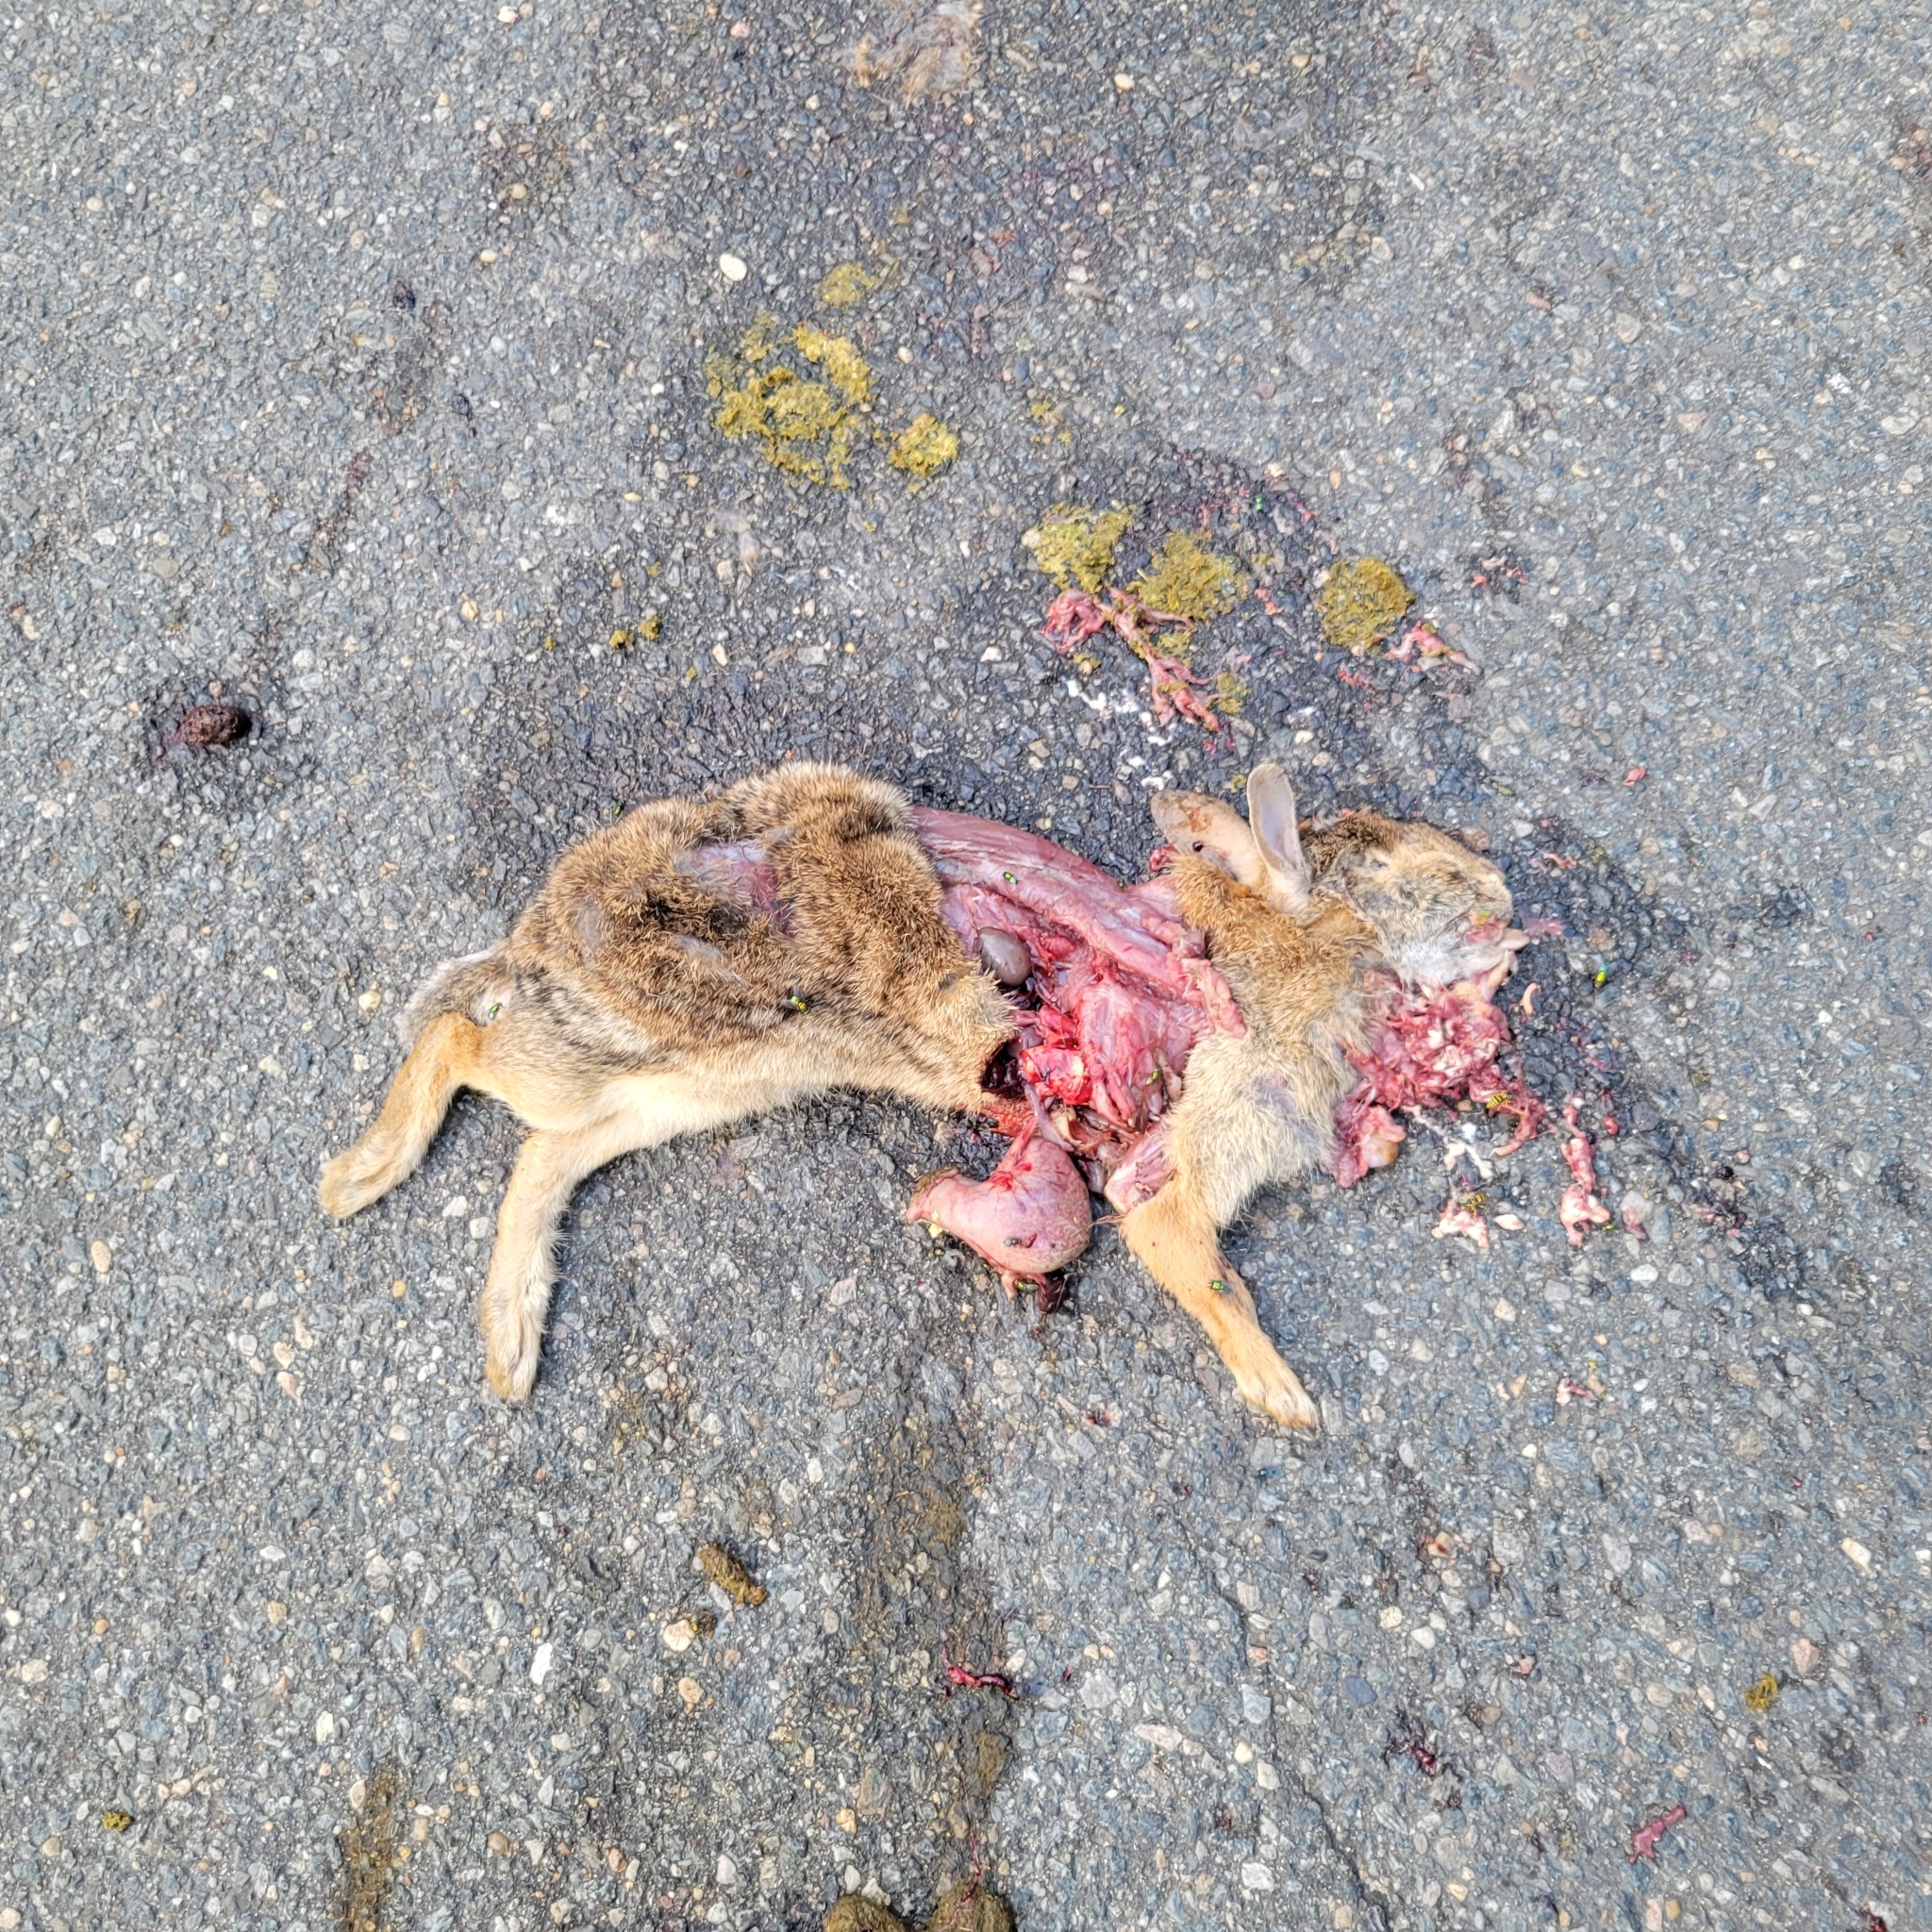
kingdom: Animalia
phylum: Chordata
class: Mammalia
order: Lagomorpha
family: Leporidae
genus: Sylvilagus
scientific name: Sylvilagus floridanus
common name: Eastern cottontail
